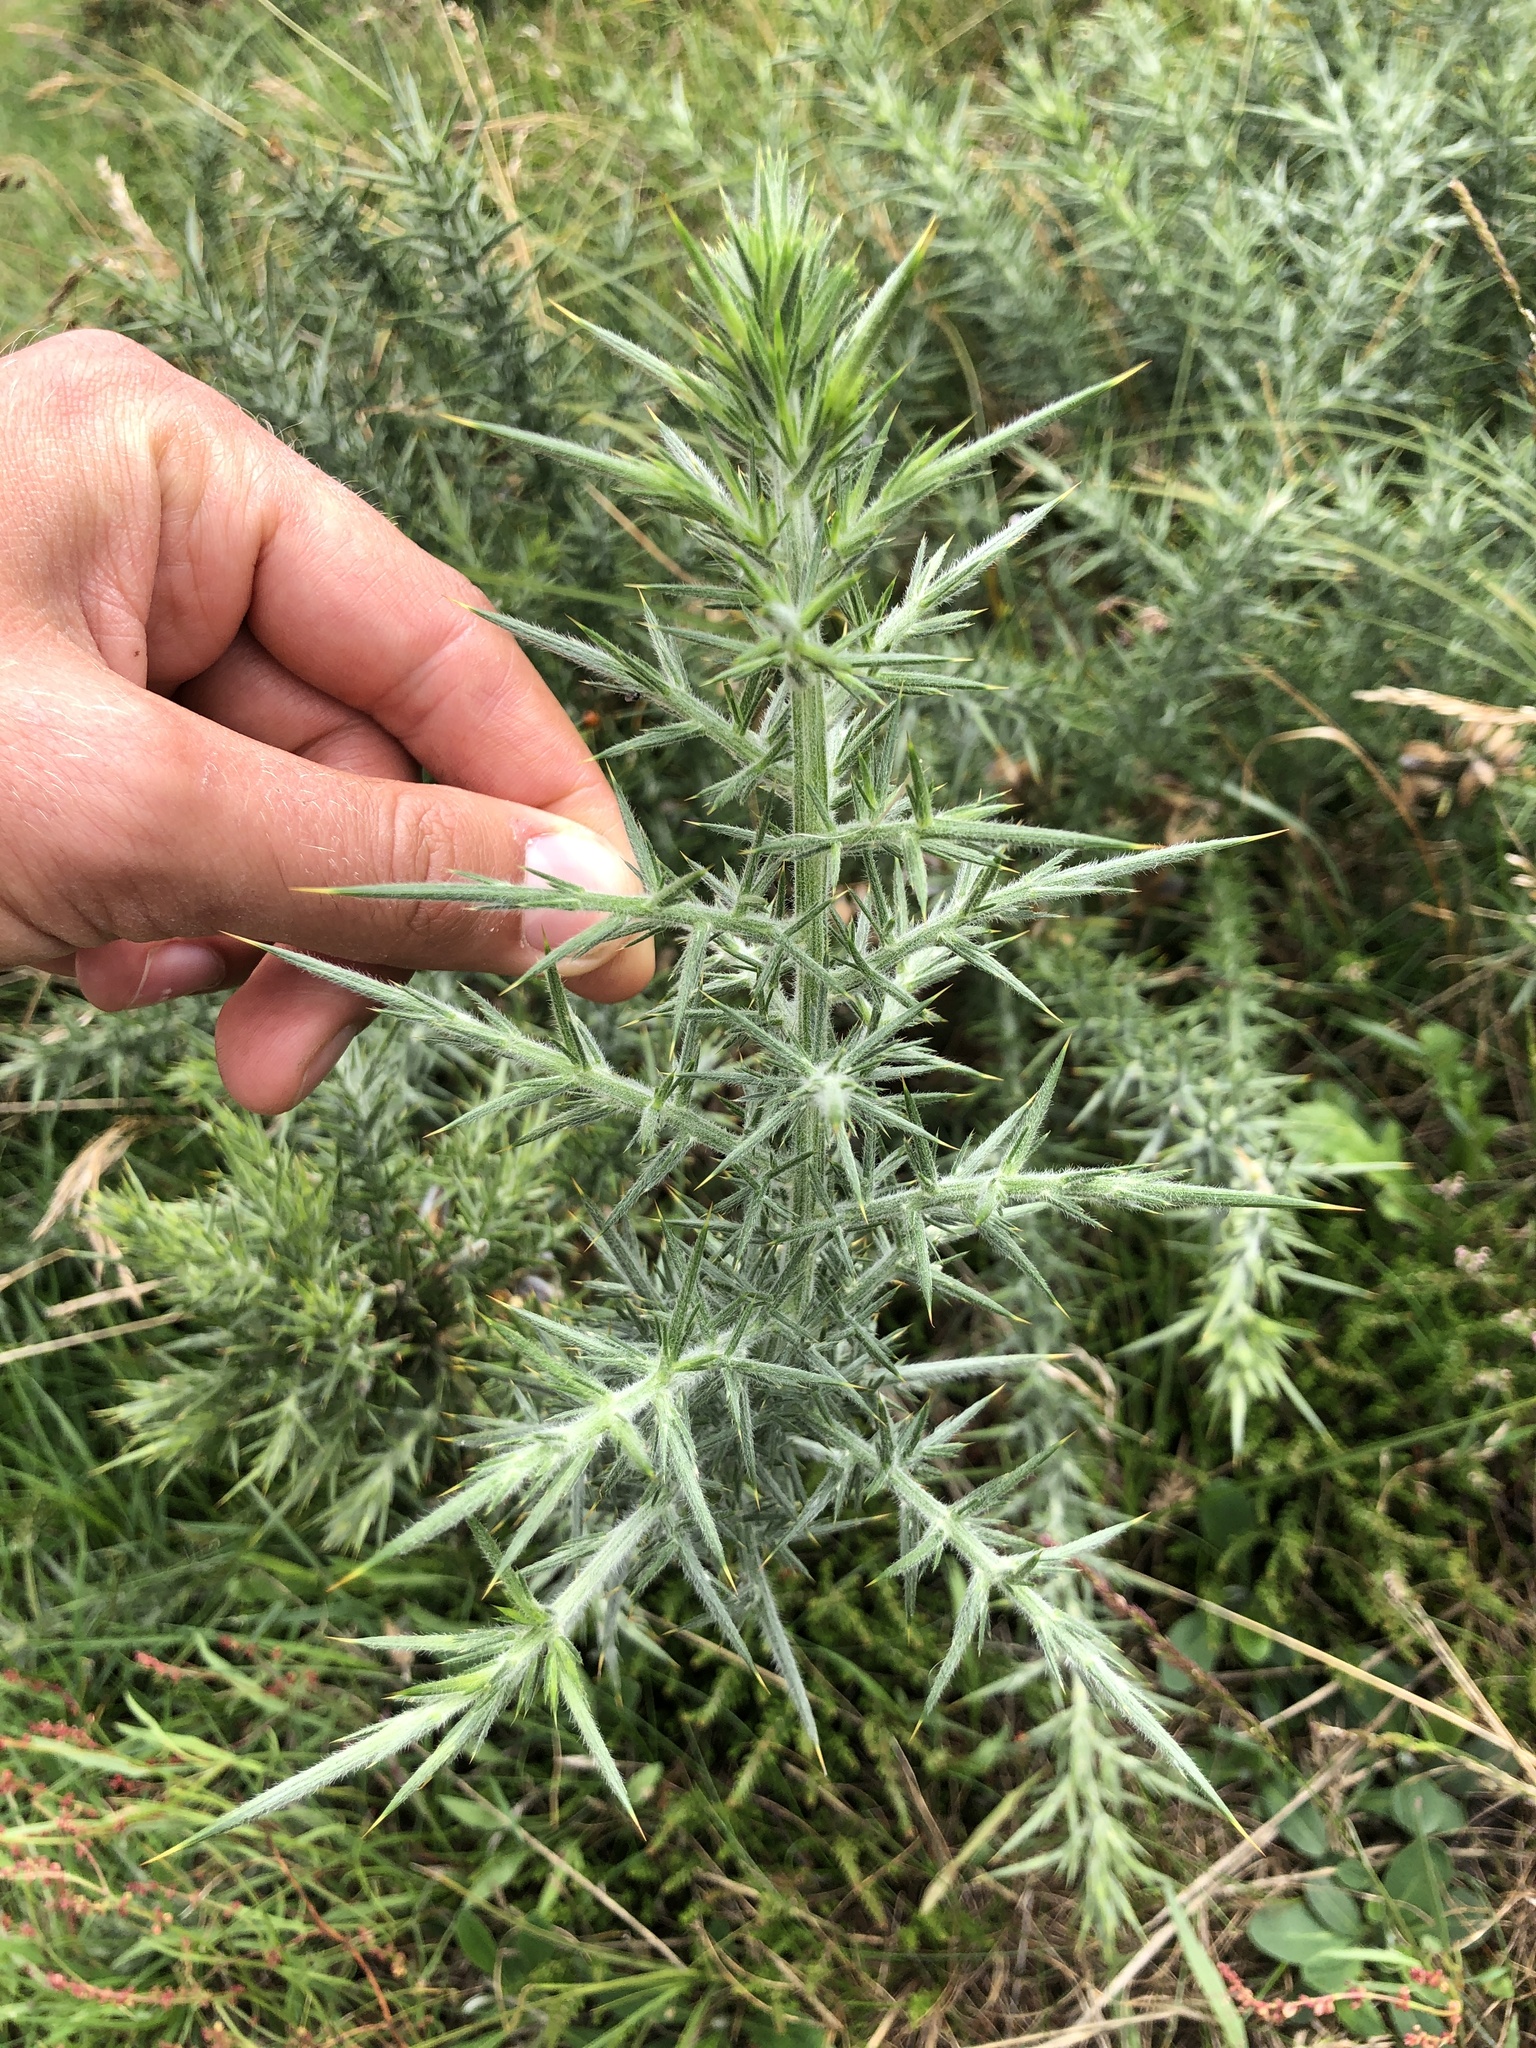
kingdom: Plantae
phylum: Tracheophyta
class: Magnoliopsida
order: Fabales
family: Fabaceae
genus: Ulex
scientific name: Ulex europaeus
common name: Common gorse
